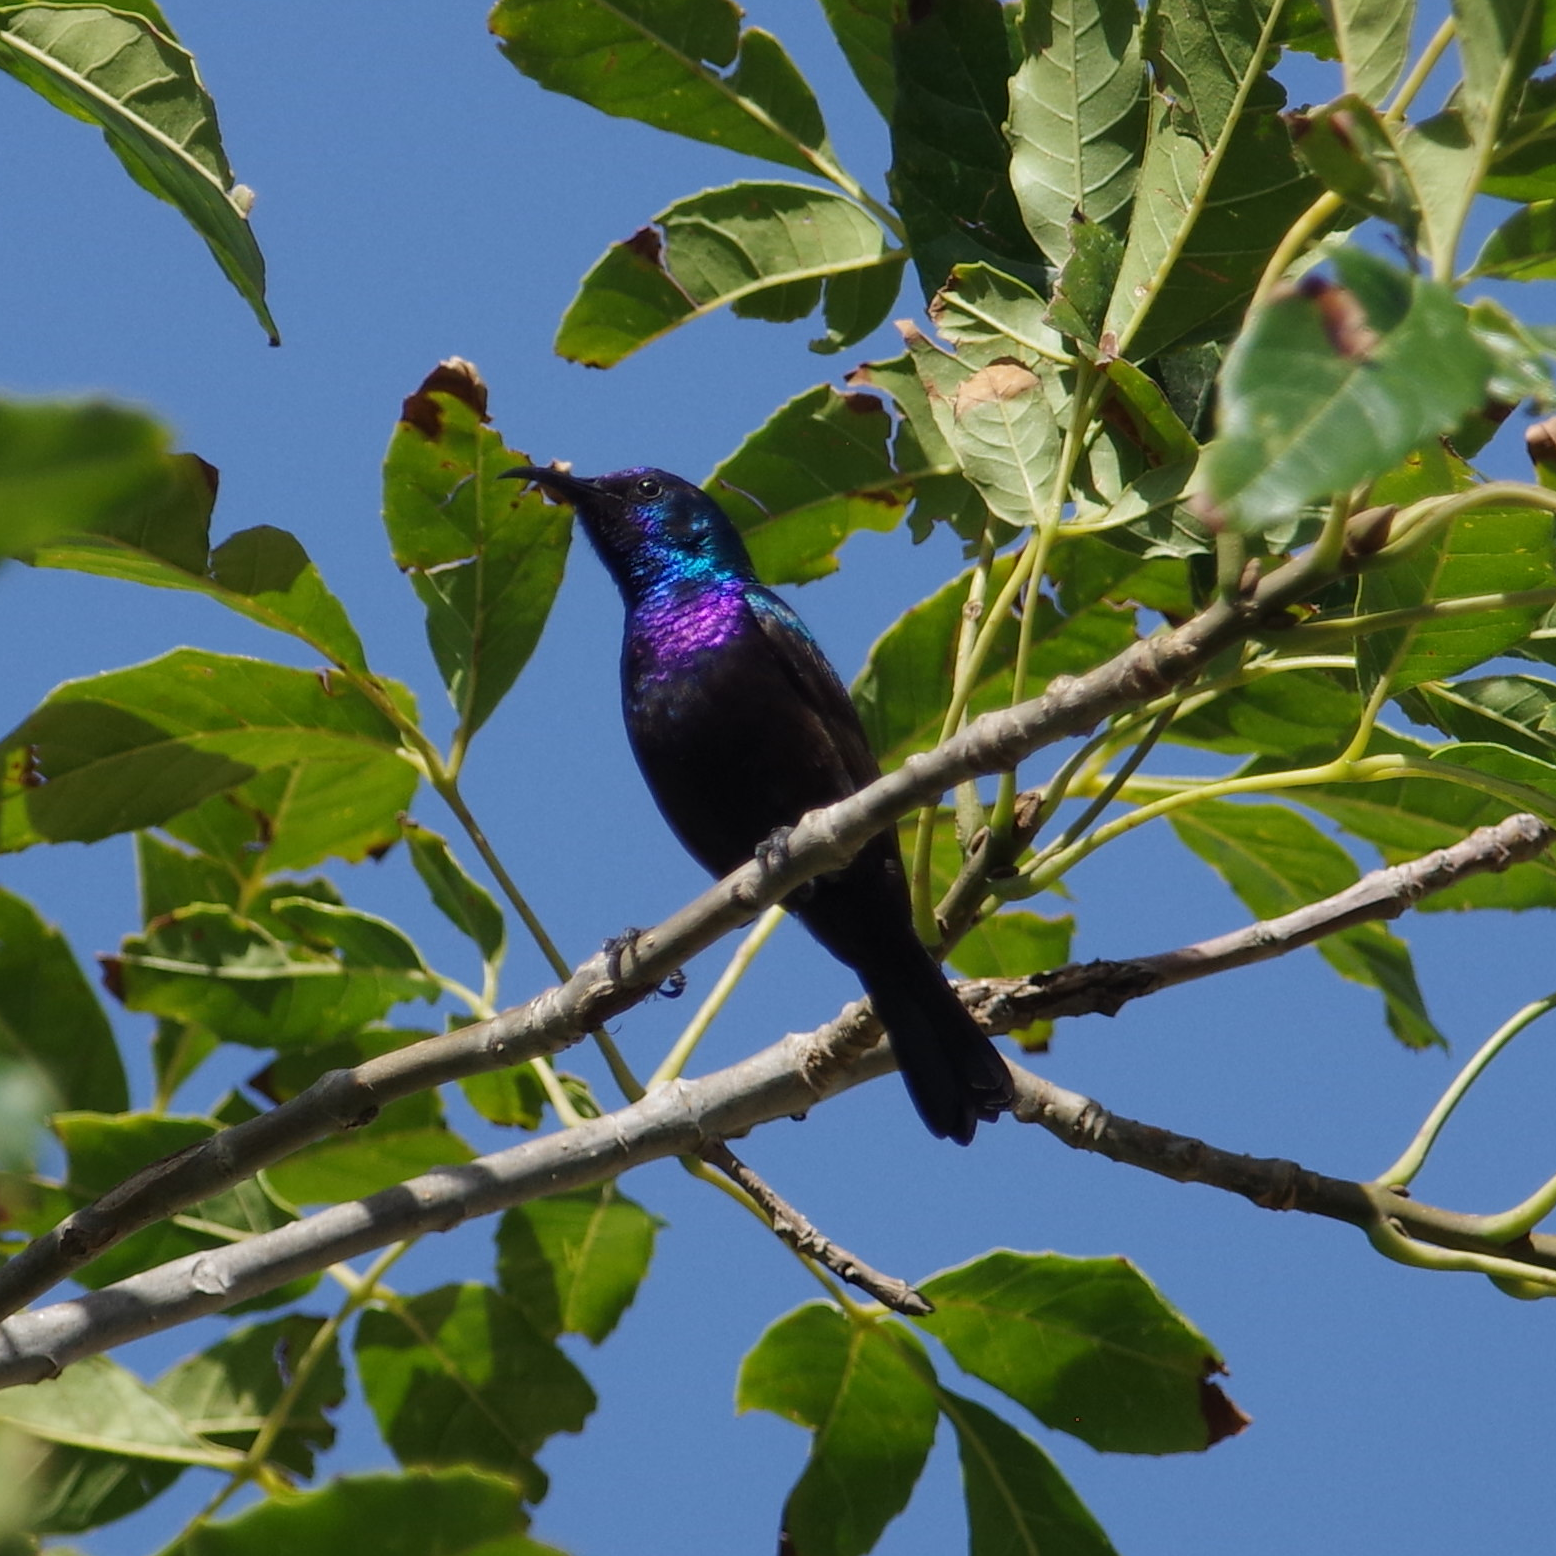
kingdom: Animalia
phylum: Chordata
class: Aves
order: Passeriformes
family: Nectariniidae
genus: Cinnyris
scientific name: Cinnyris osea
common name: Palestine sunbird
